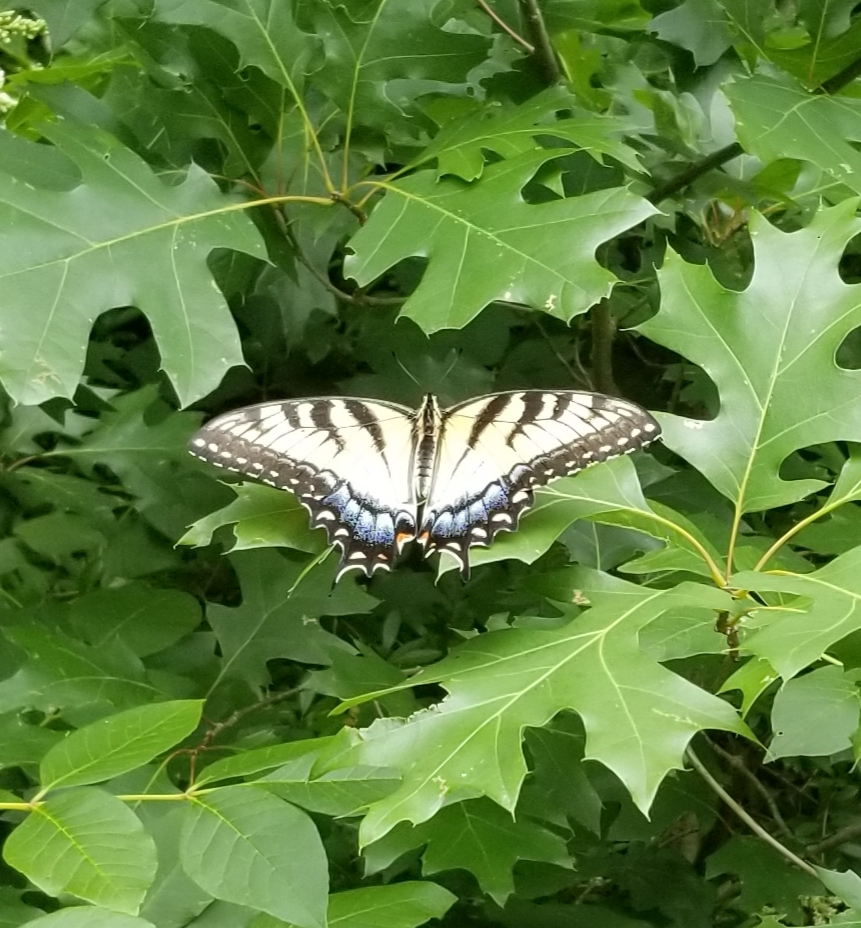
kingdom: Animalia
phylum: Arthropoda
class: Insecta
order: Lepidoptera
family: Papilionidae
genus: Papilio
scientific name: Papilio glaucus
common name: Tiger swallowtail
